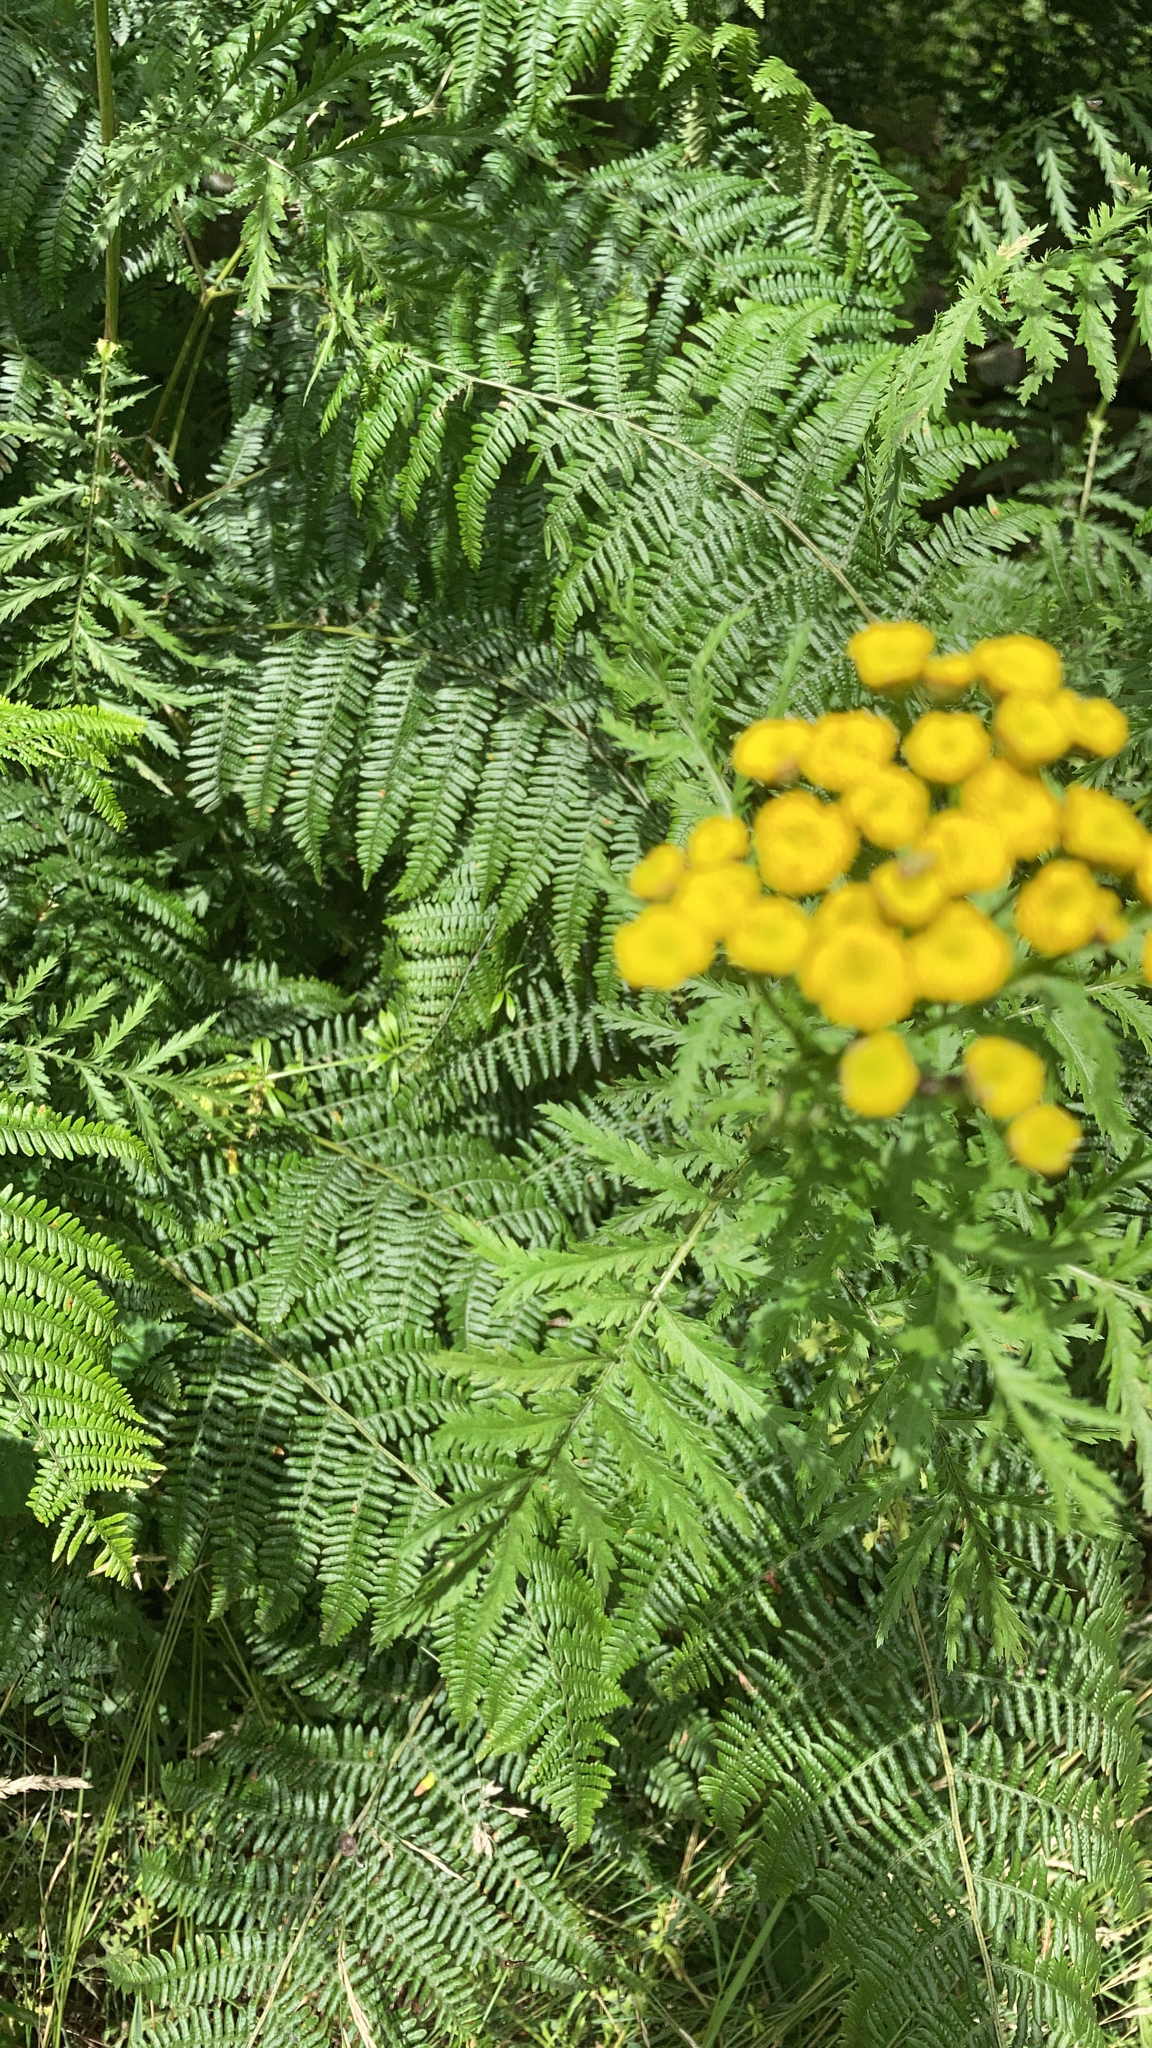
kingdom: Plantae
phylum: Tracheophyta
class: Magnoliopsida
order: Asterales
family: Asteraceae
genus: Tanacetum
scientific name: Tanacetum vulgare
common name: Common tansy
